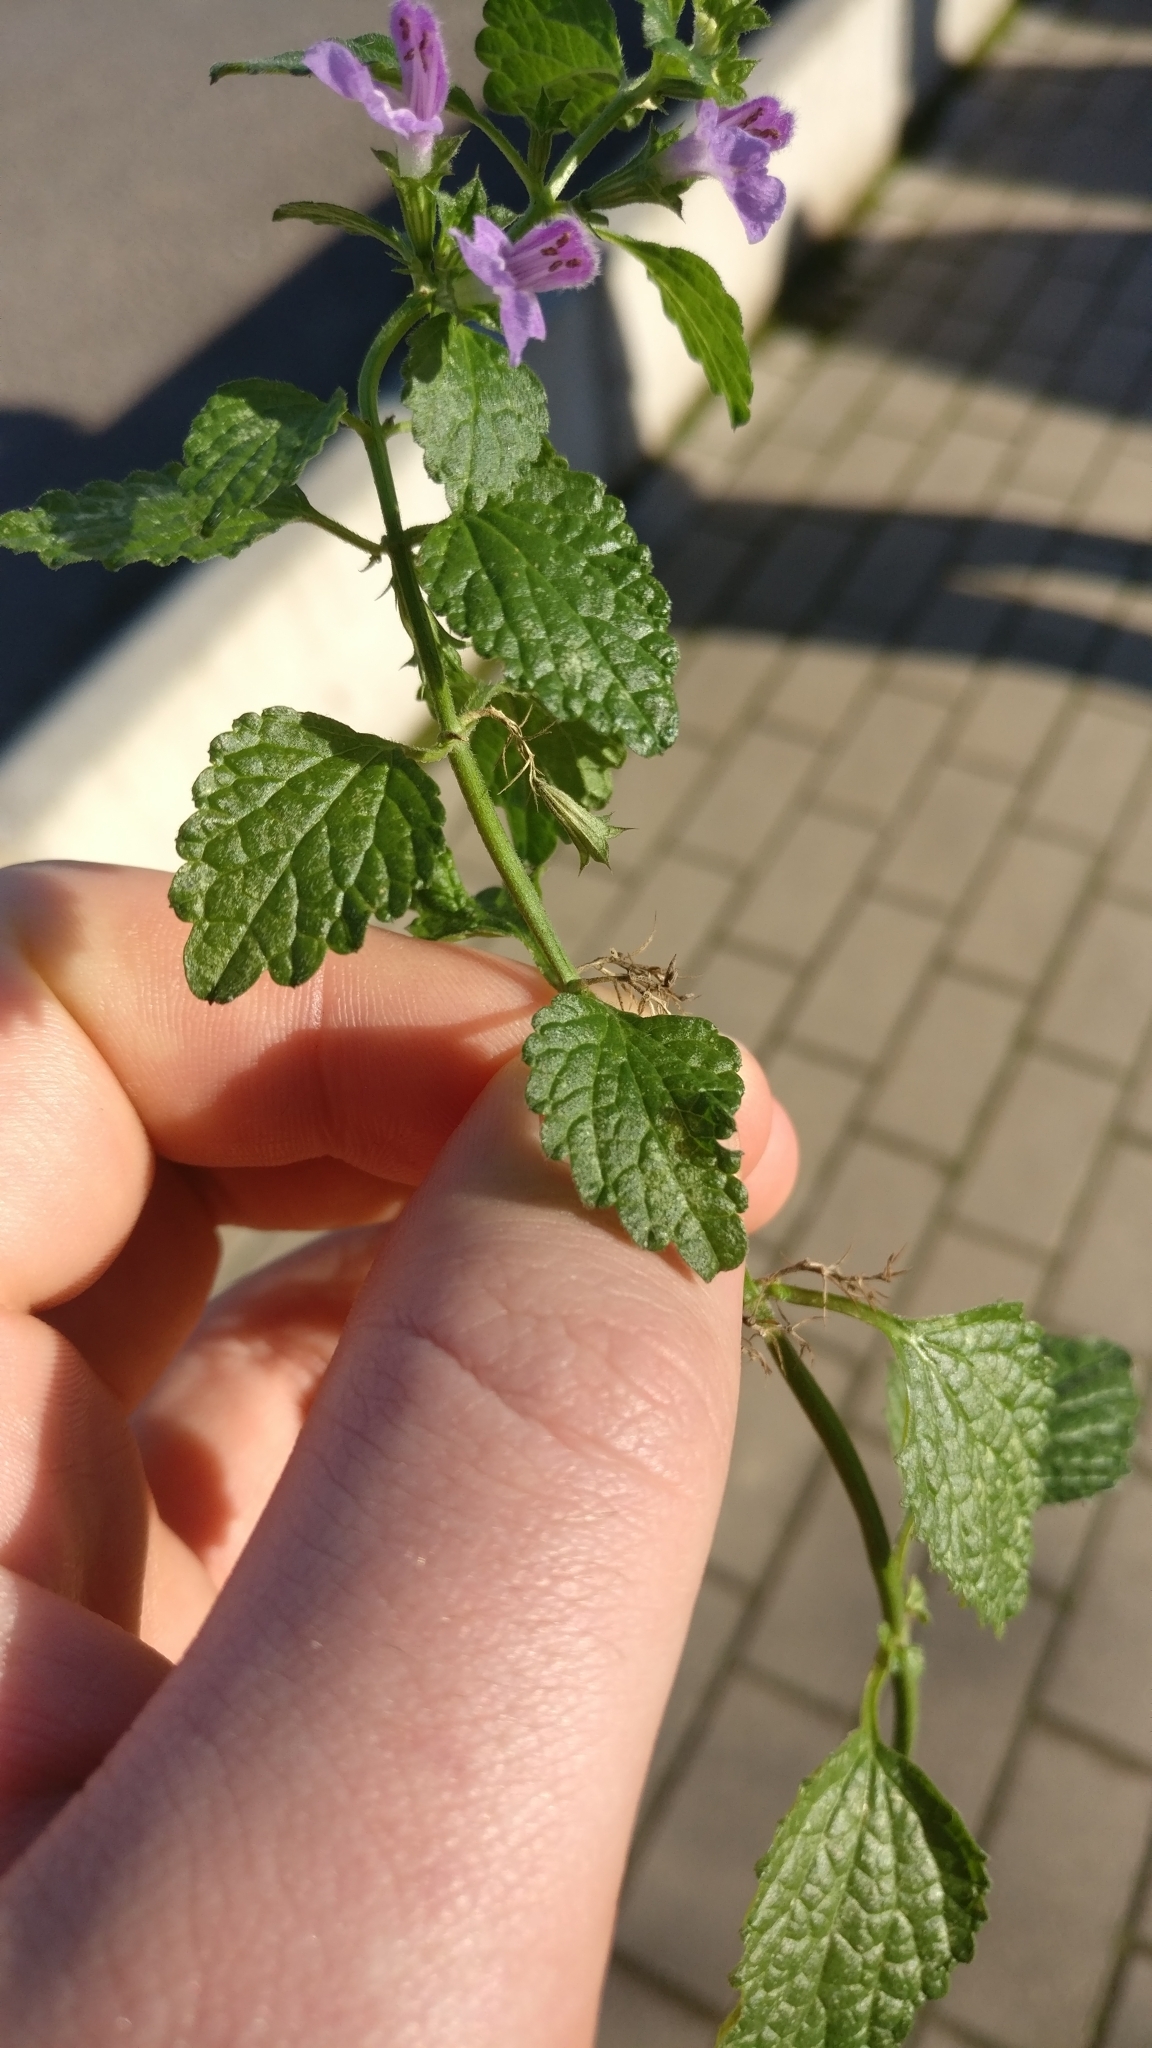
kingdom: Plantae
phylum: Tracheophyta
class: Magnoliopsida
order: Lamiales
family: Lamiaceae
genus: Ballota
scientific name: Ballota nigra
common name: Black horehound
